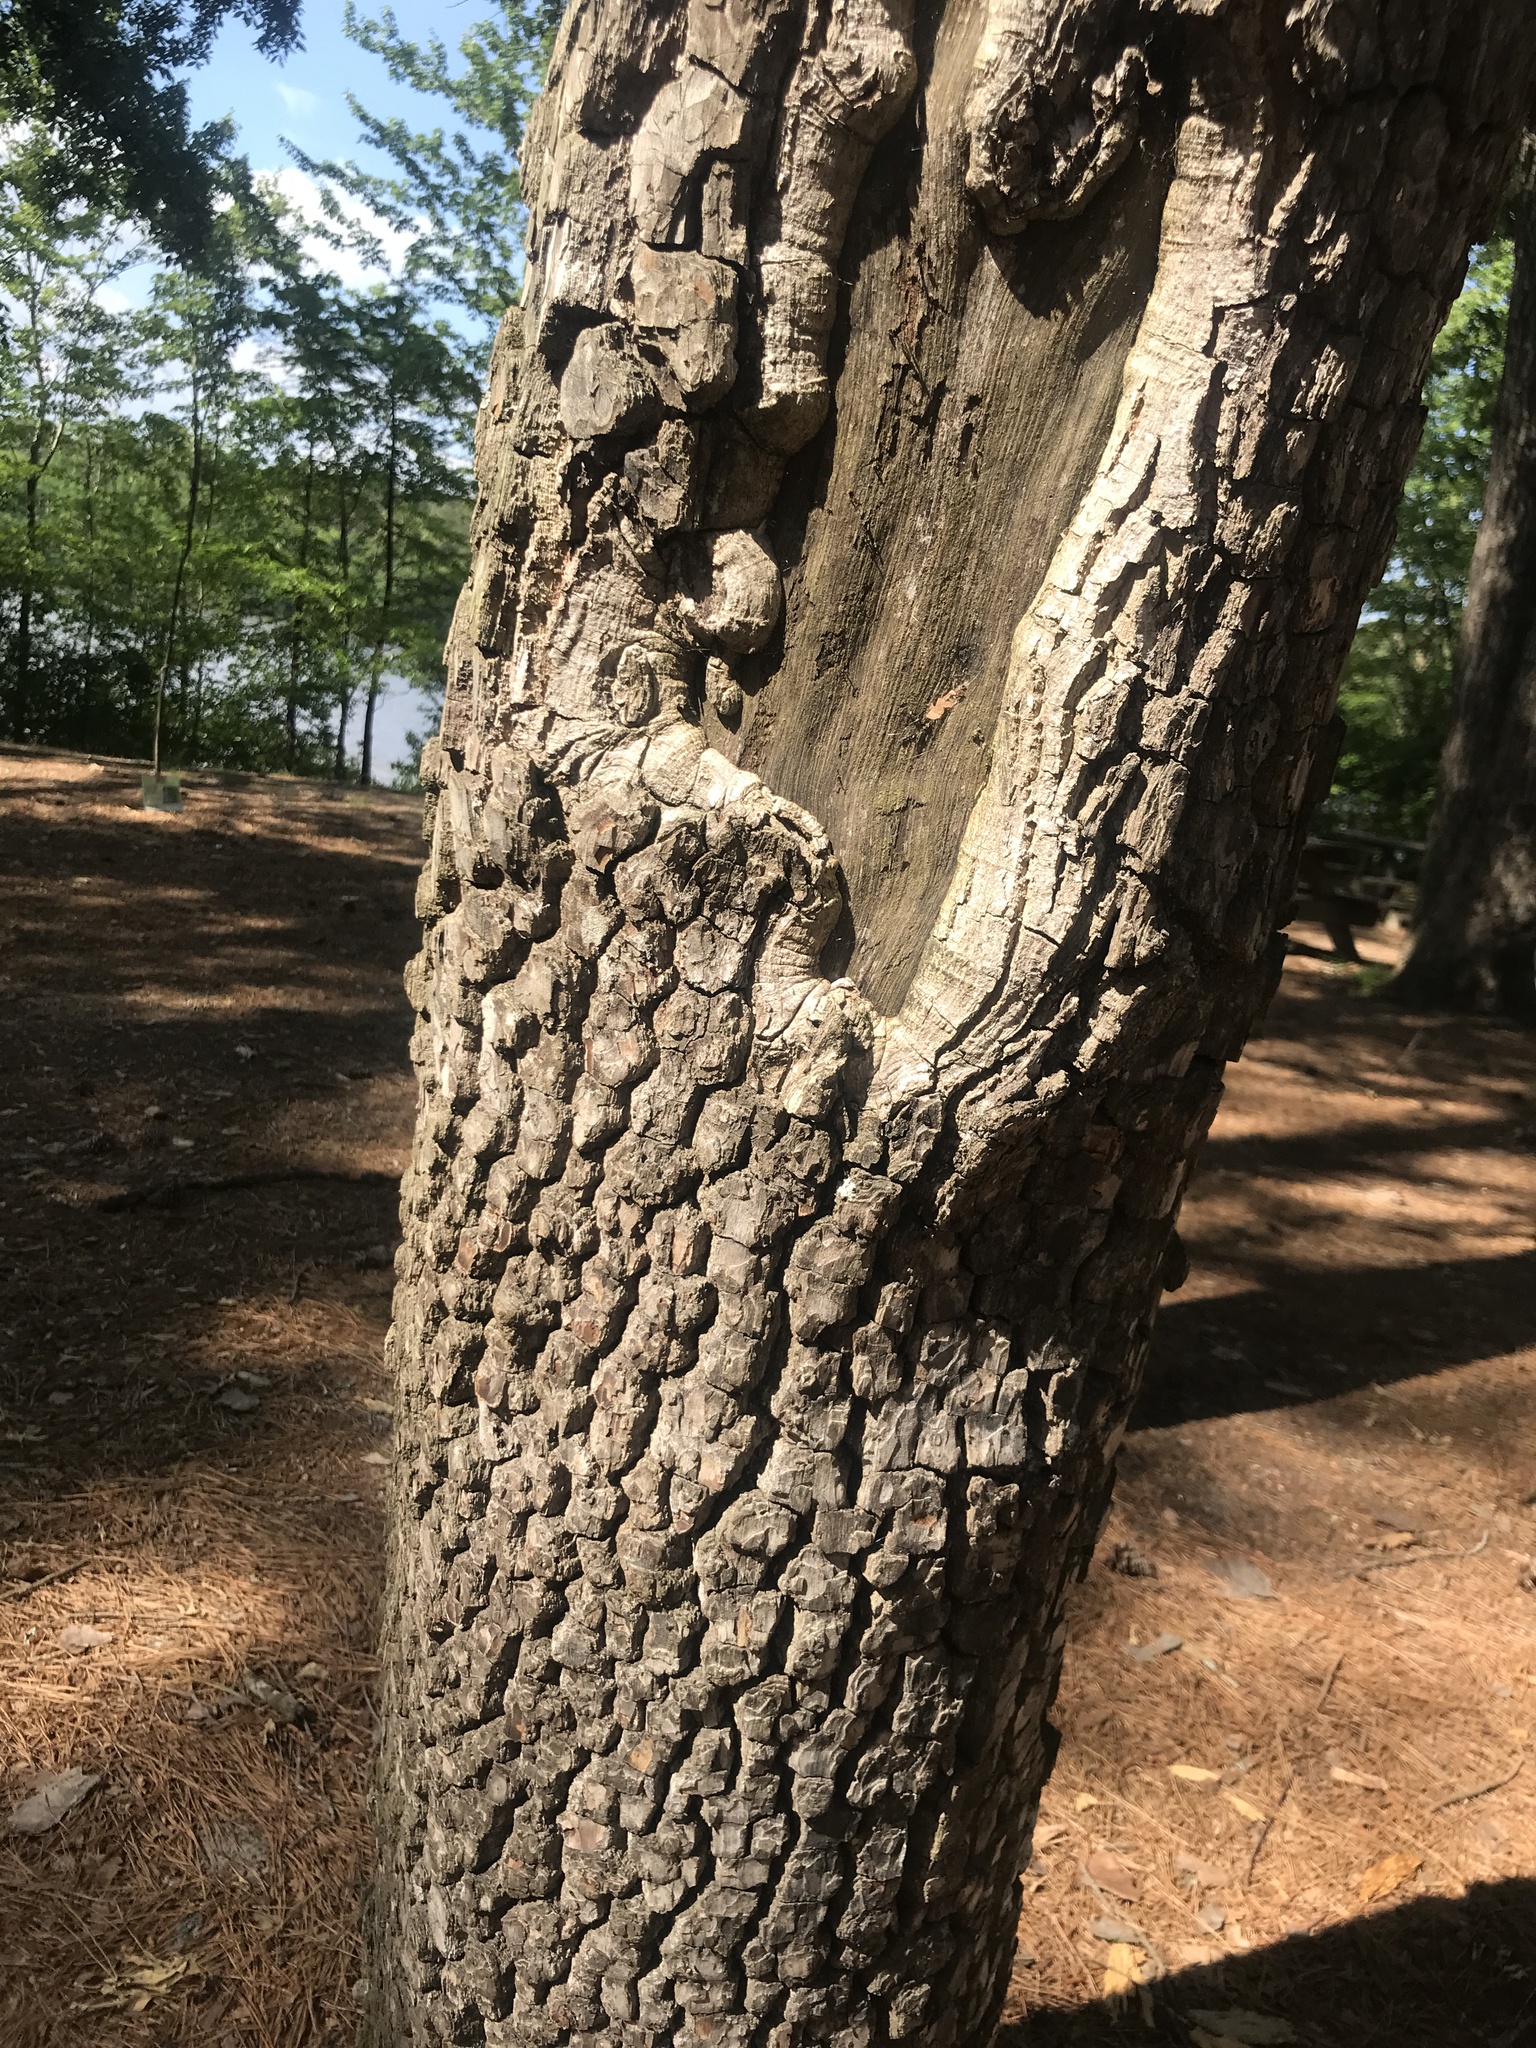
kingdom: Plantae
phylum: Tracheophyta
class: Magnoliopsida
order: Ericales
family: Ebenaceae
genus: Diospyros
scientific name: Diospyros virginiana
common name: Persimmon
